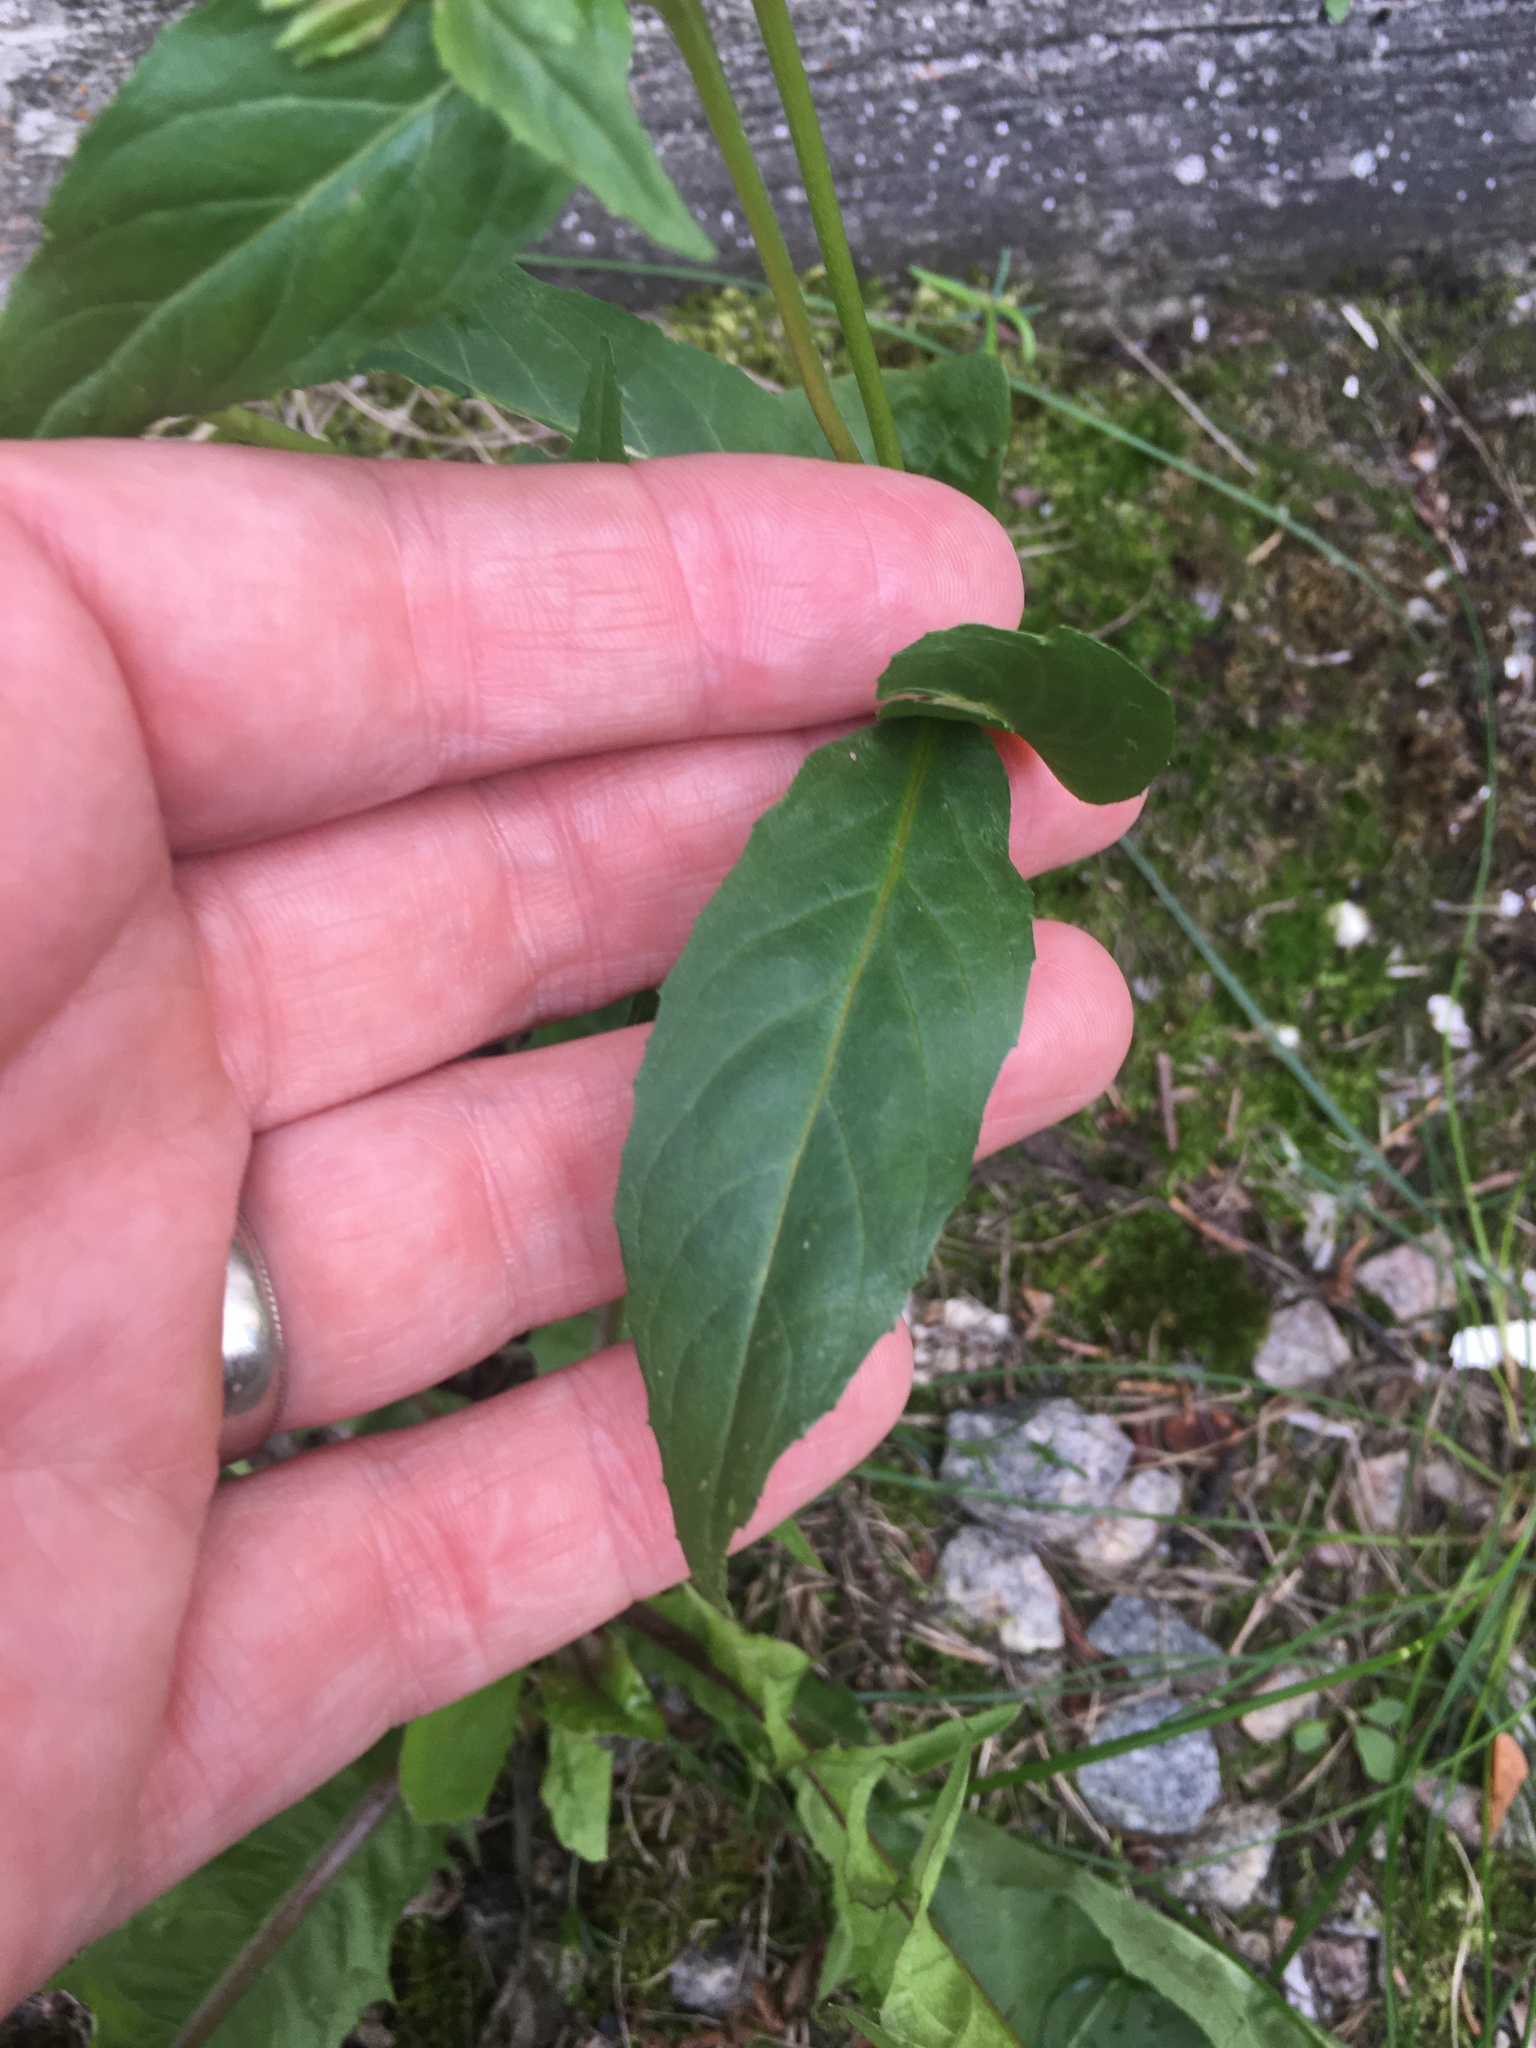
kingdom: Plantae
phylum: Tracheophyta
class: Magnoliopsida
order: Myrtales
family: Onagraceae
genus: Epilobium
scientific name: Epilobium coloratum
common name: Bronze willowherb
